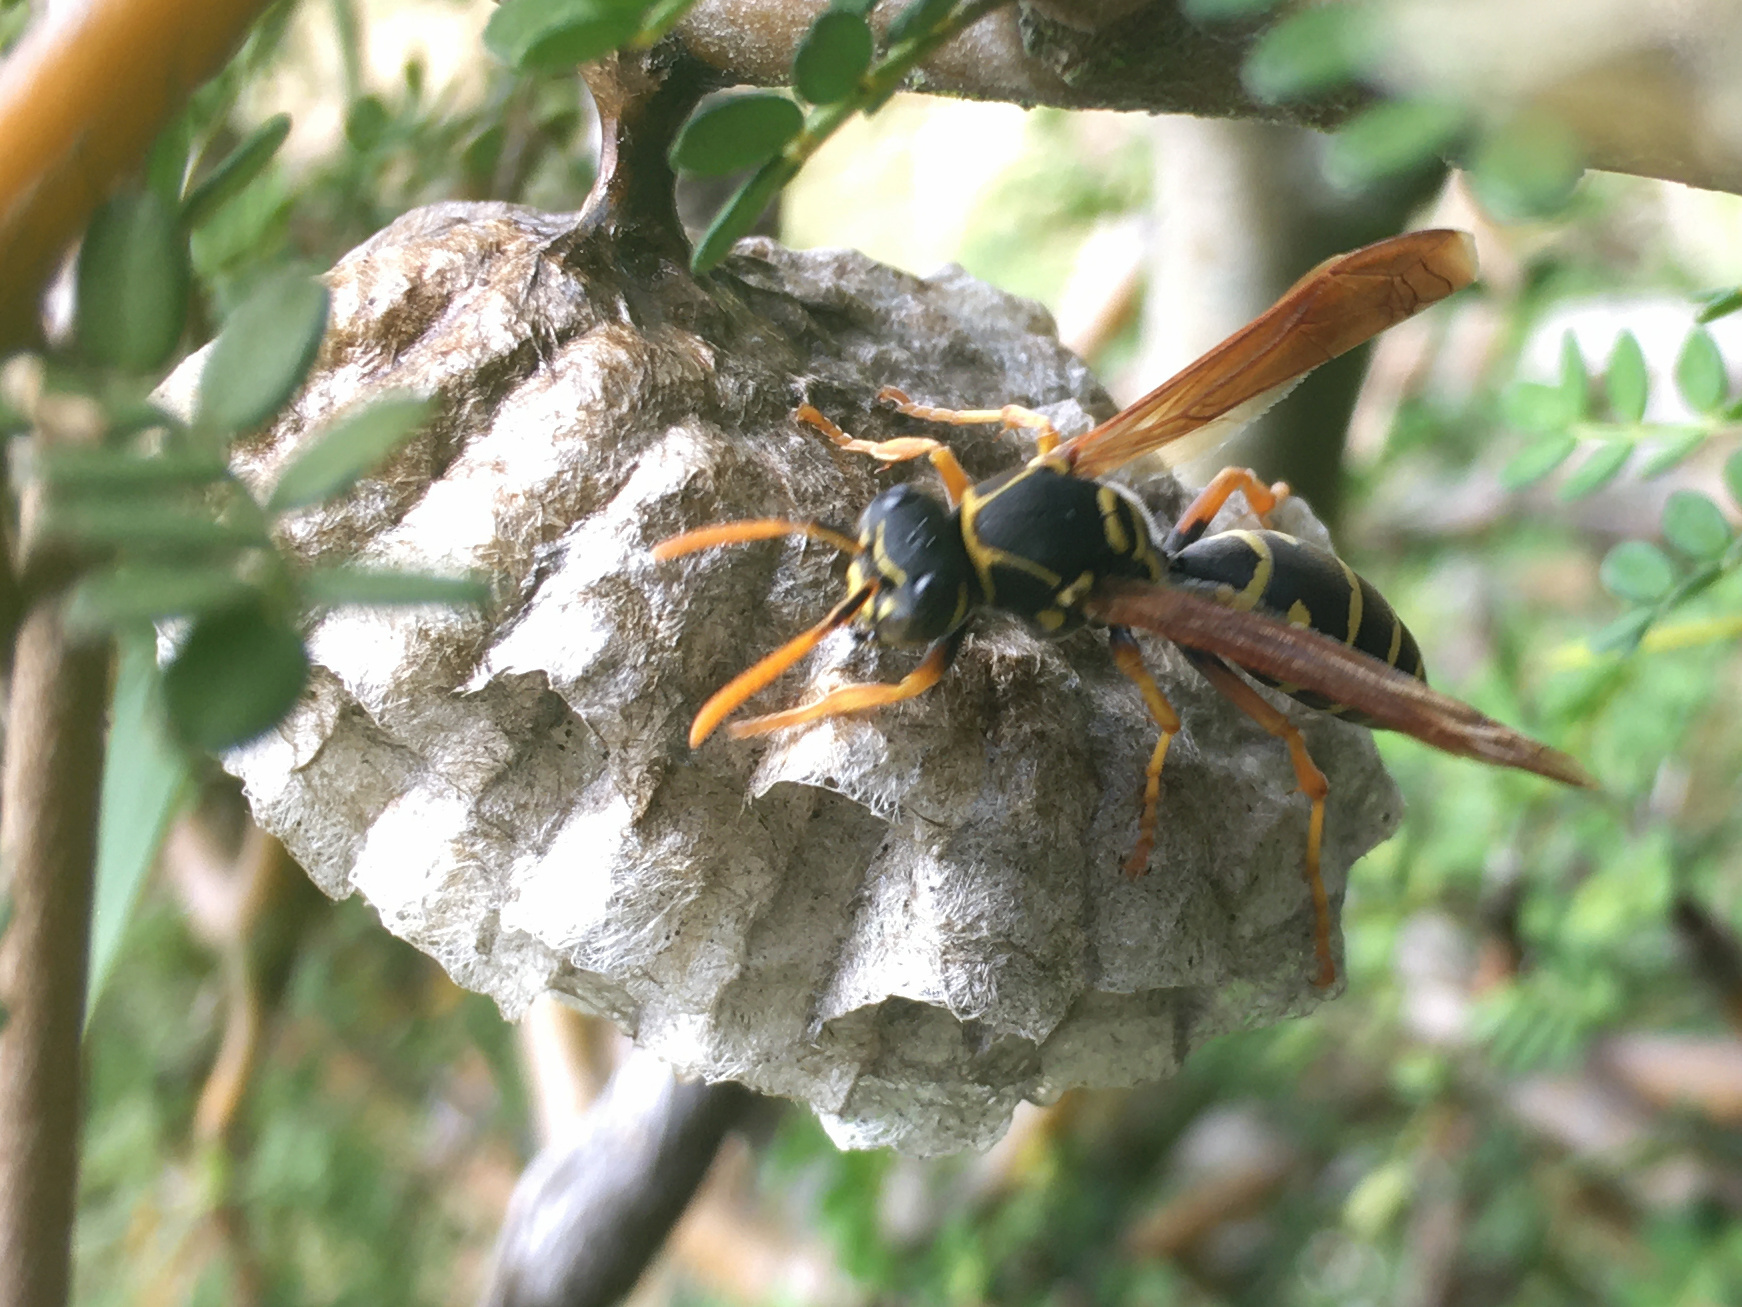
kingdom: Animalia
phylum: Arthropoda
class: Insecta
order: Hymenoptera
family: Eumenidae
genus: Polistes
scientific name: Polistes chinensis
